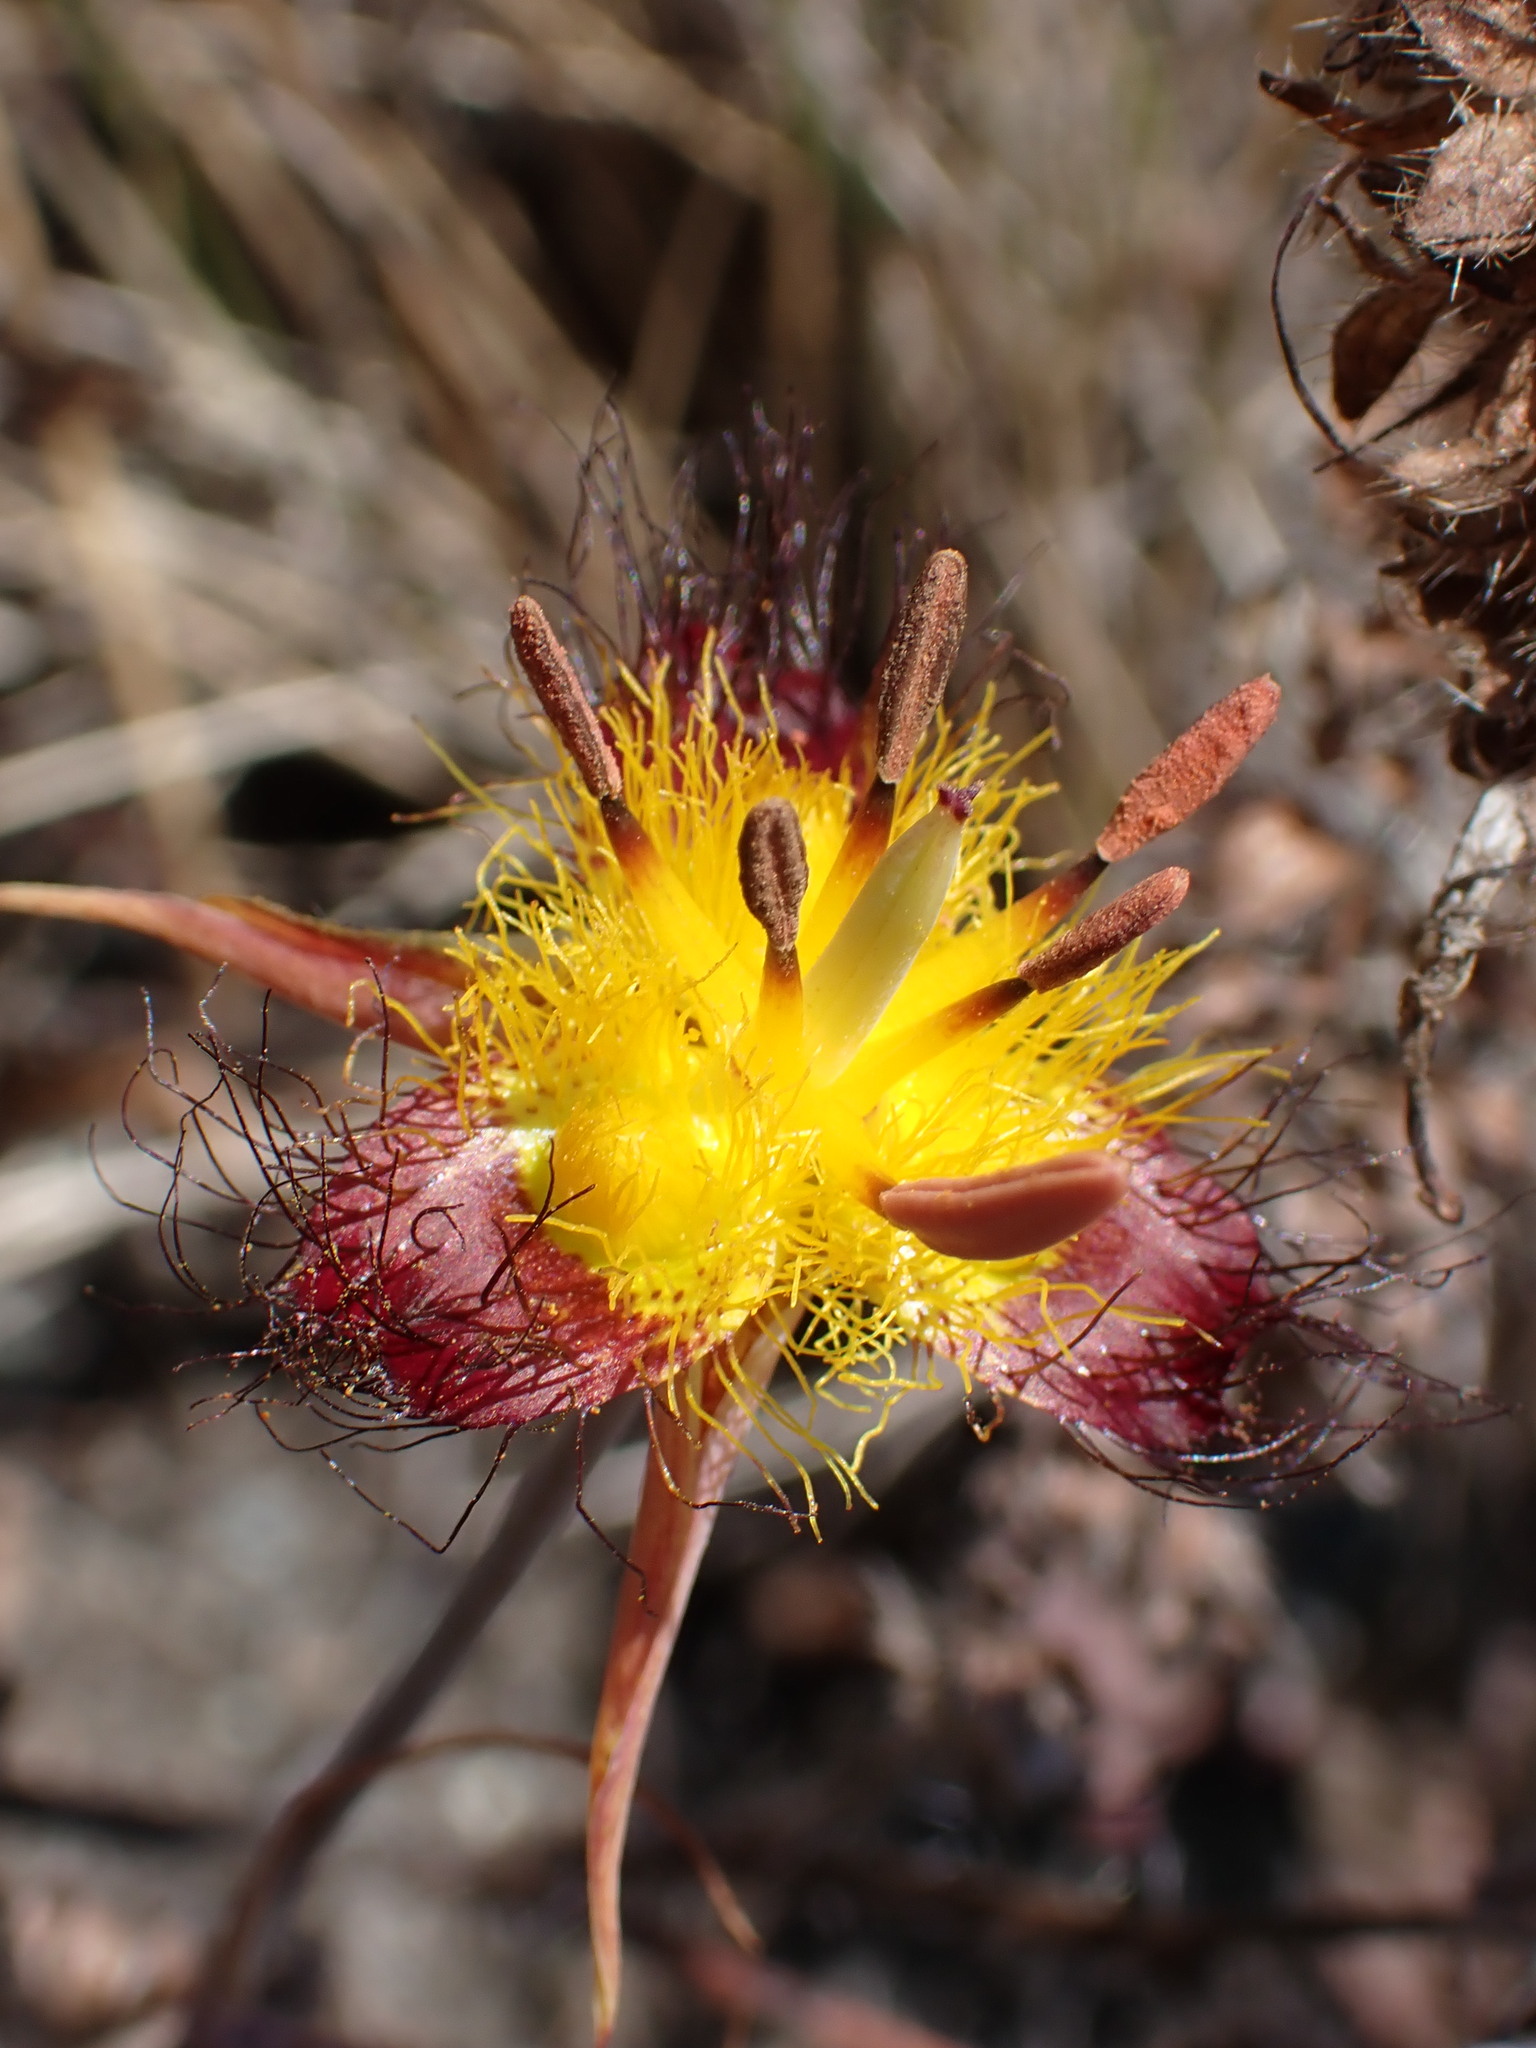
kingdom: Plantae
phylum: Tracheophyta
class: Liliopsida
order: Liliales
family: Liliaceae
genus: Calochortus
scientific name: Calochortus obispoensis
